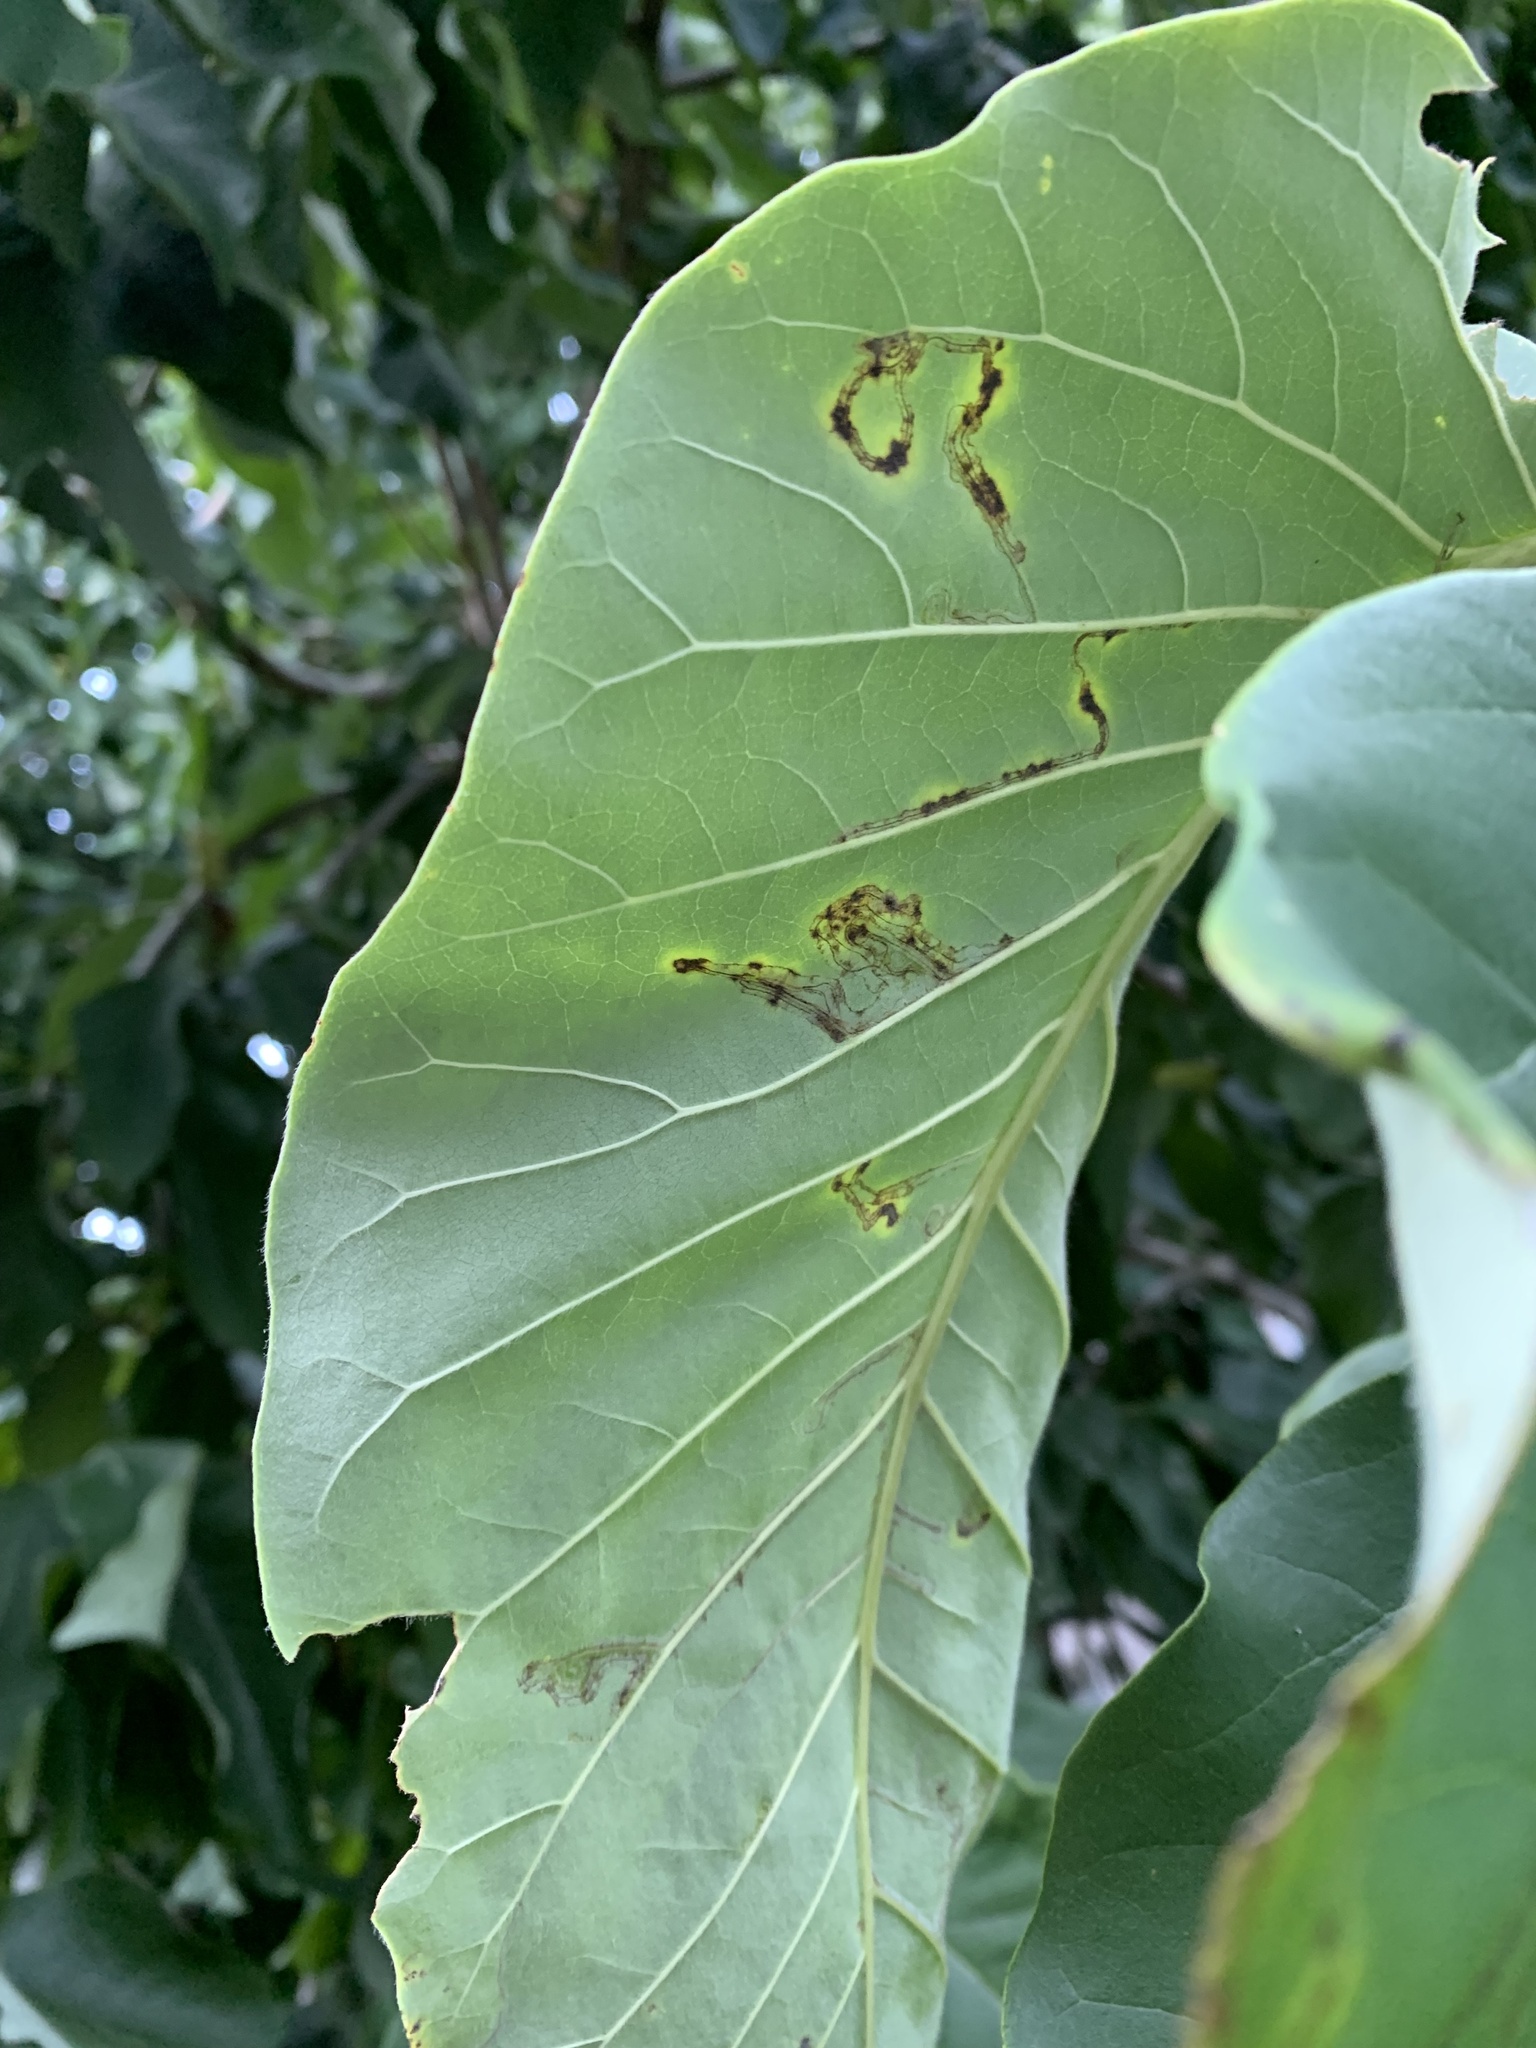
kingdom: Animalia
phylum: Arthropoda
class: Insecta
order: Lepidoptera
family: Gracillariidae
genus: Phyllocnistis
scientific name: Phyllocnistis liriodendronella
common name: Tulip tree leaf miner
